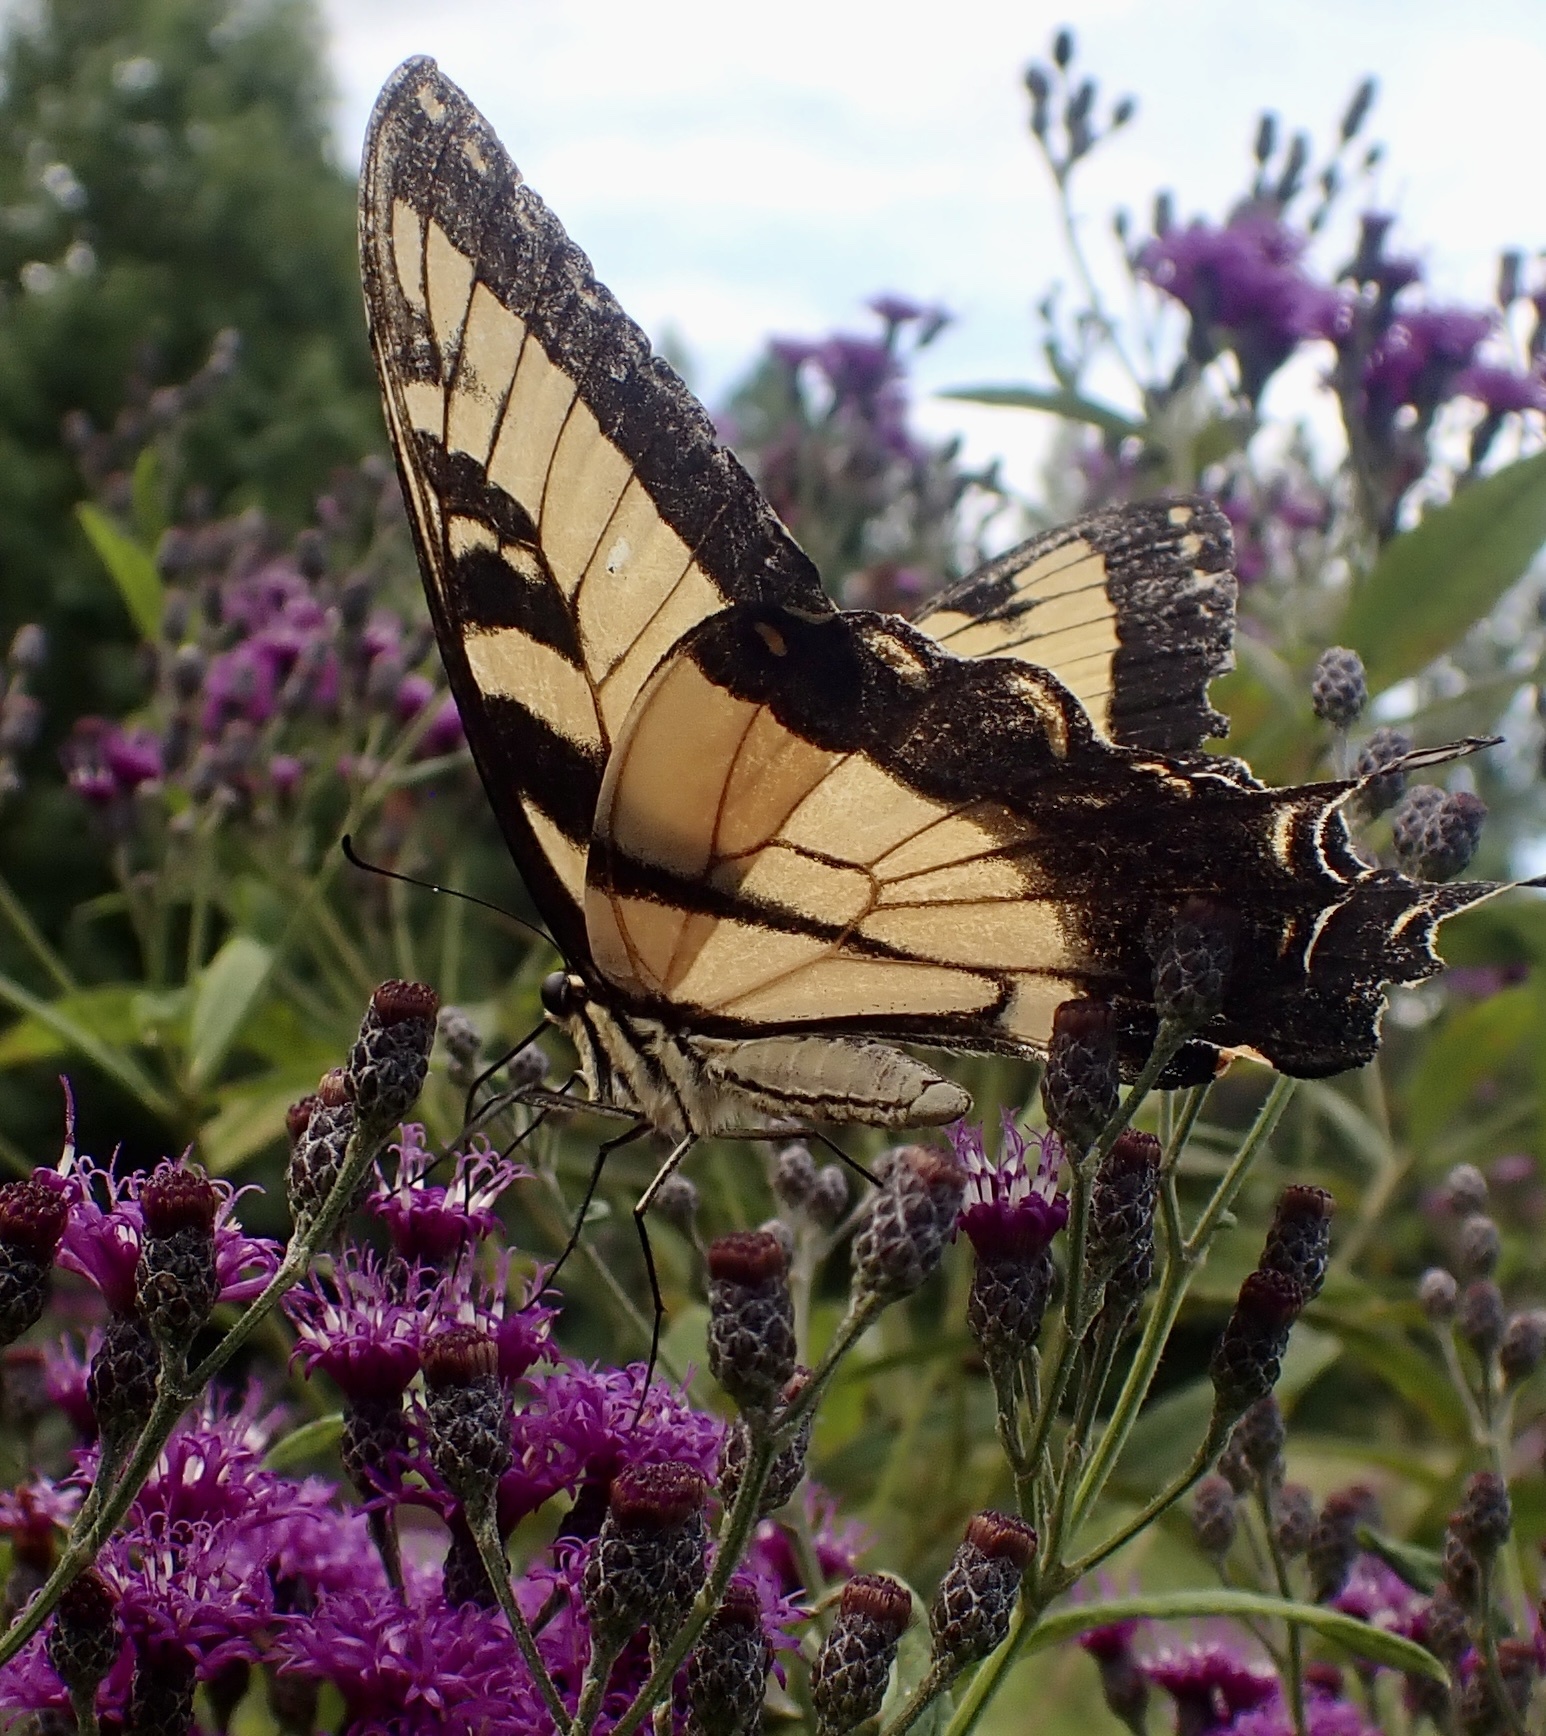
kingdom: Animalia
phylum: Arthropoda
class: Insecta
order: Lepidoptera
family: Papilionidae
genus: Papilio
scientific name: Papilio glaucus
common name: Tiger swallowtail
